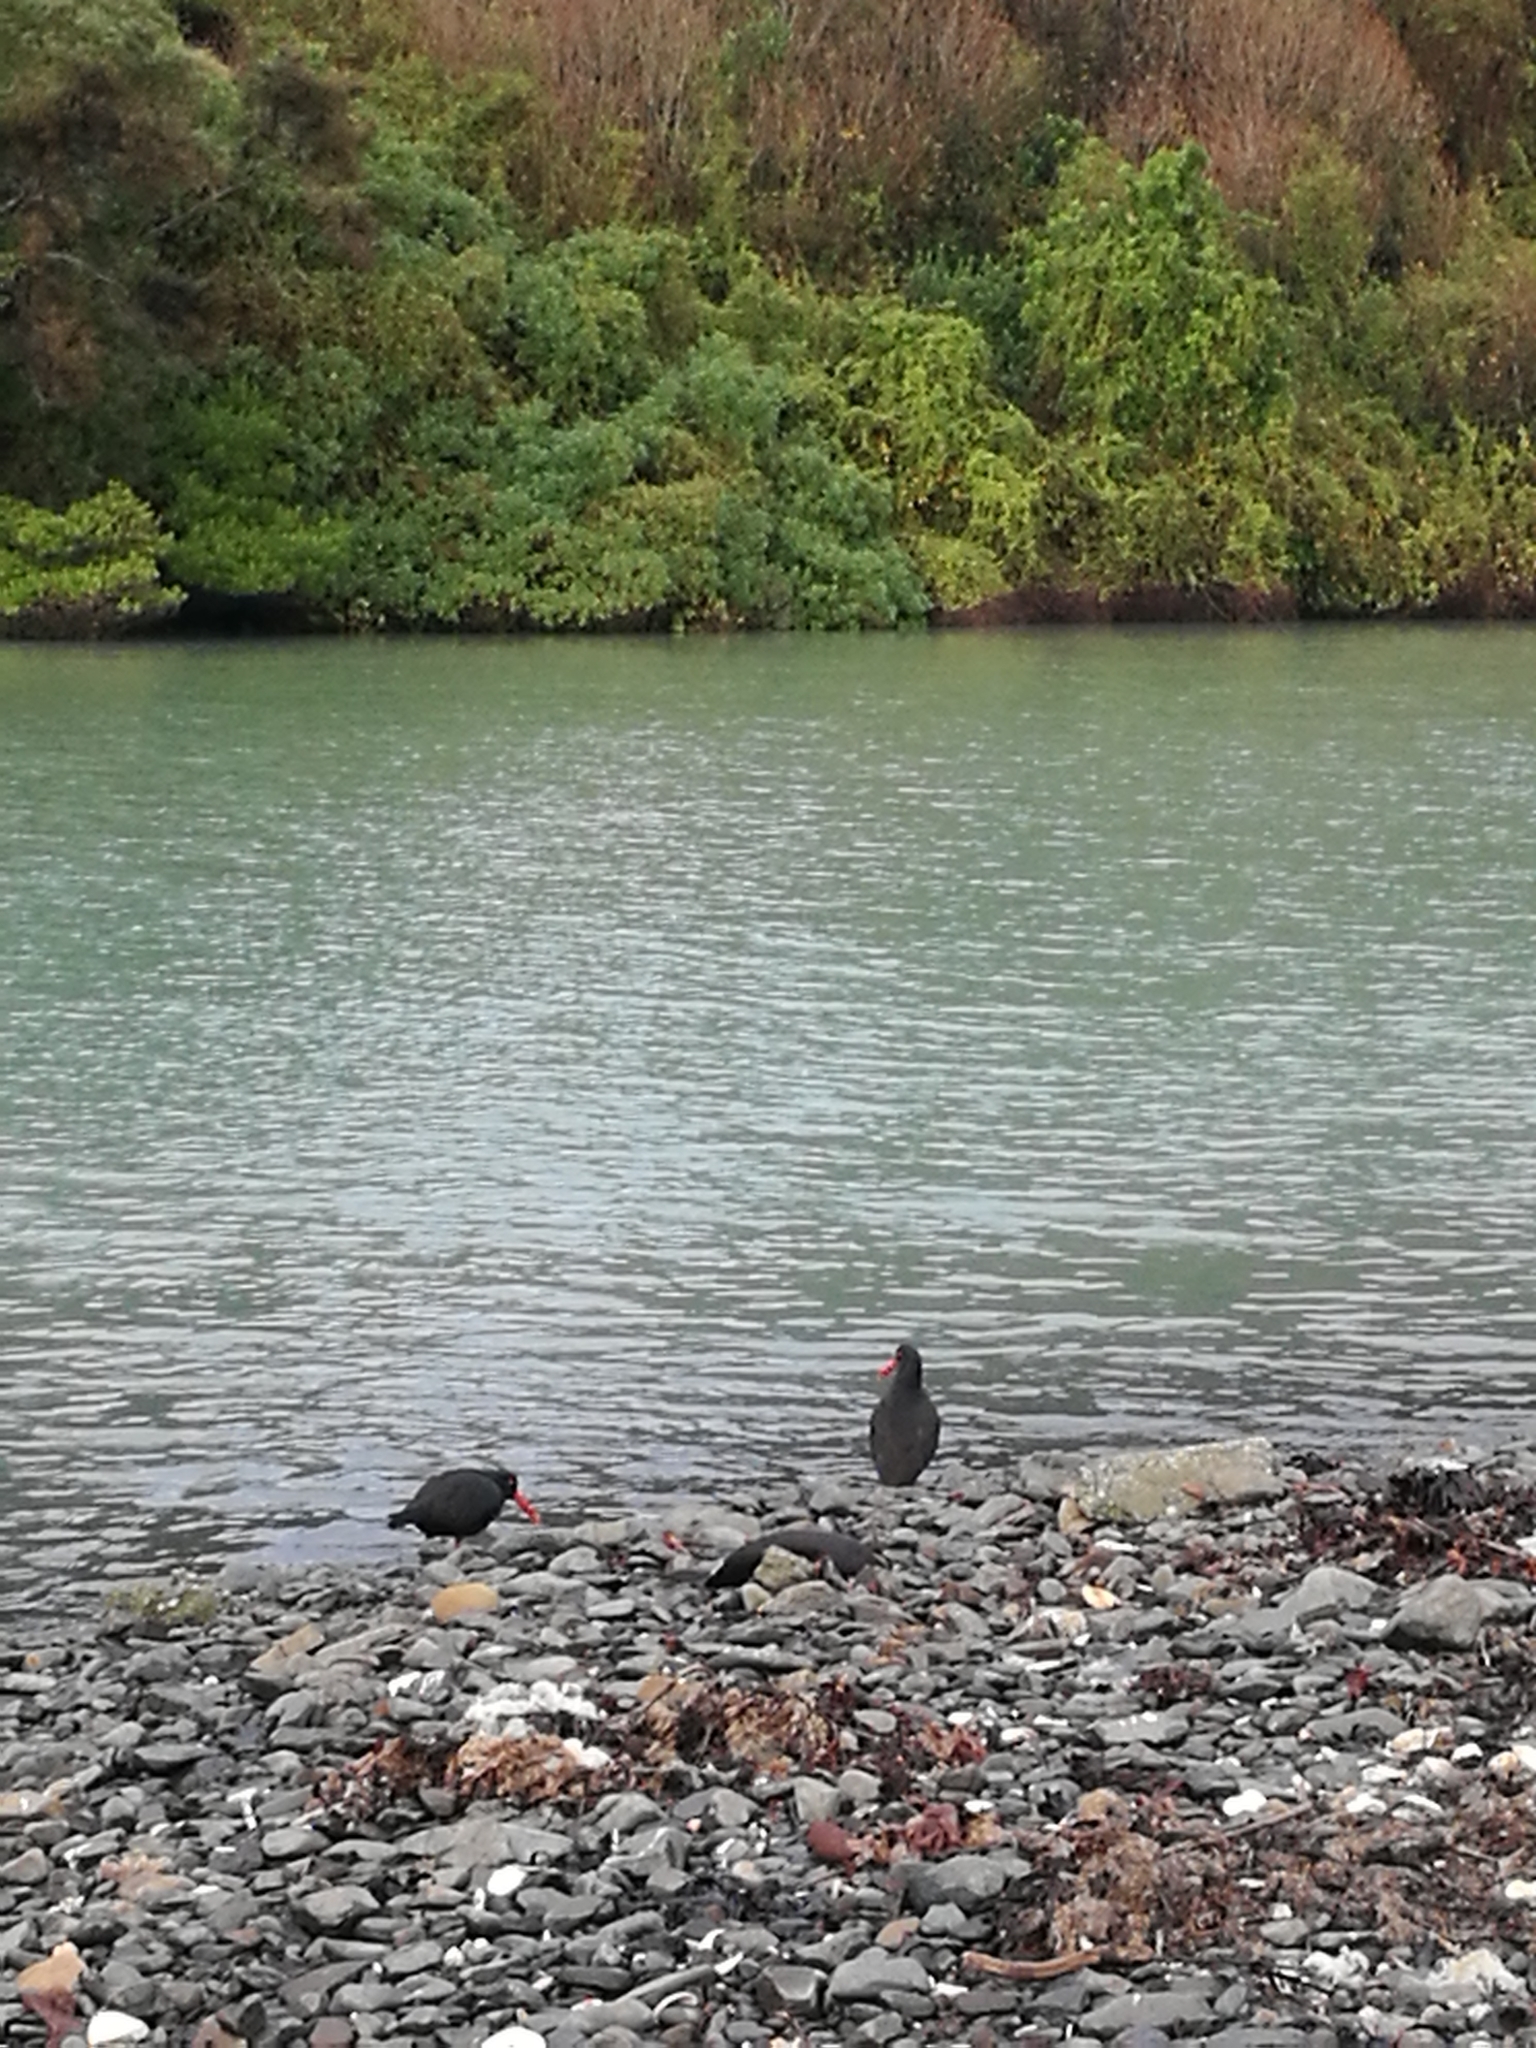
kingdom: Animalia
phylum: Chordata
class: Aves
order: Charadriiformes
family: Haematopodidae
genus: Haematopus
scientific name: Haematopus unicolor
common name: Variable oystercatcher
